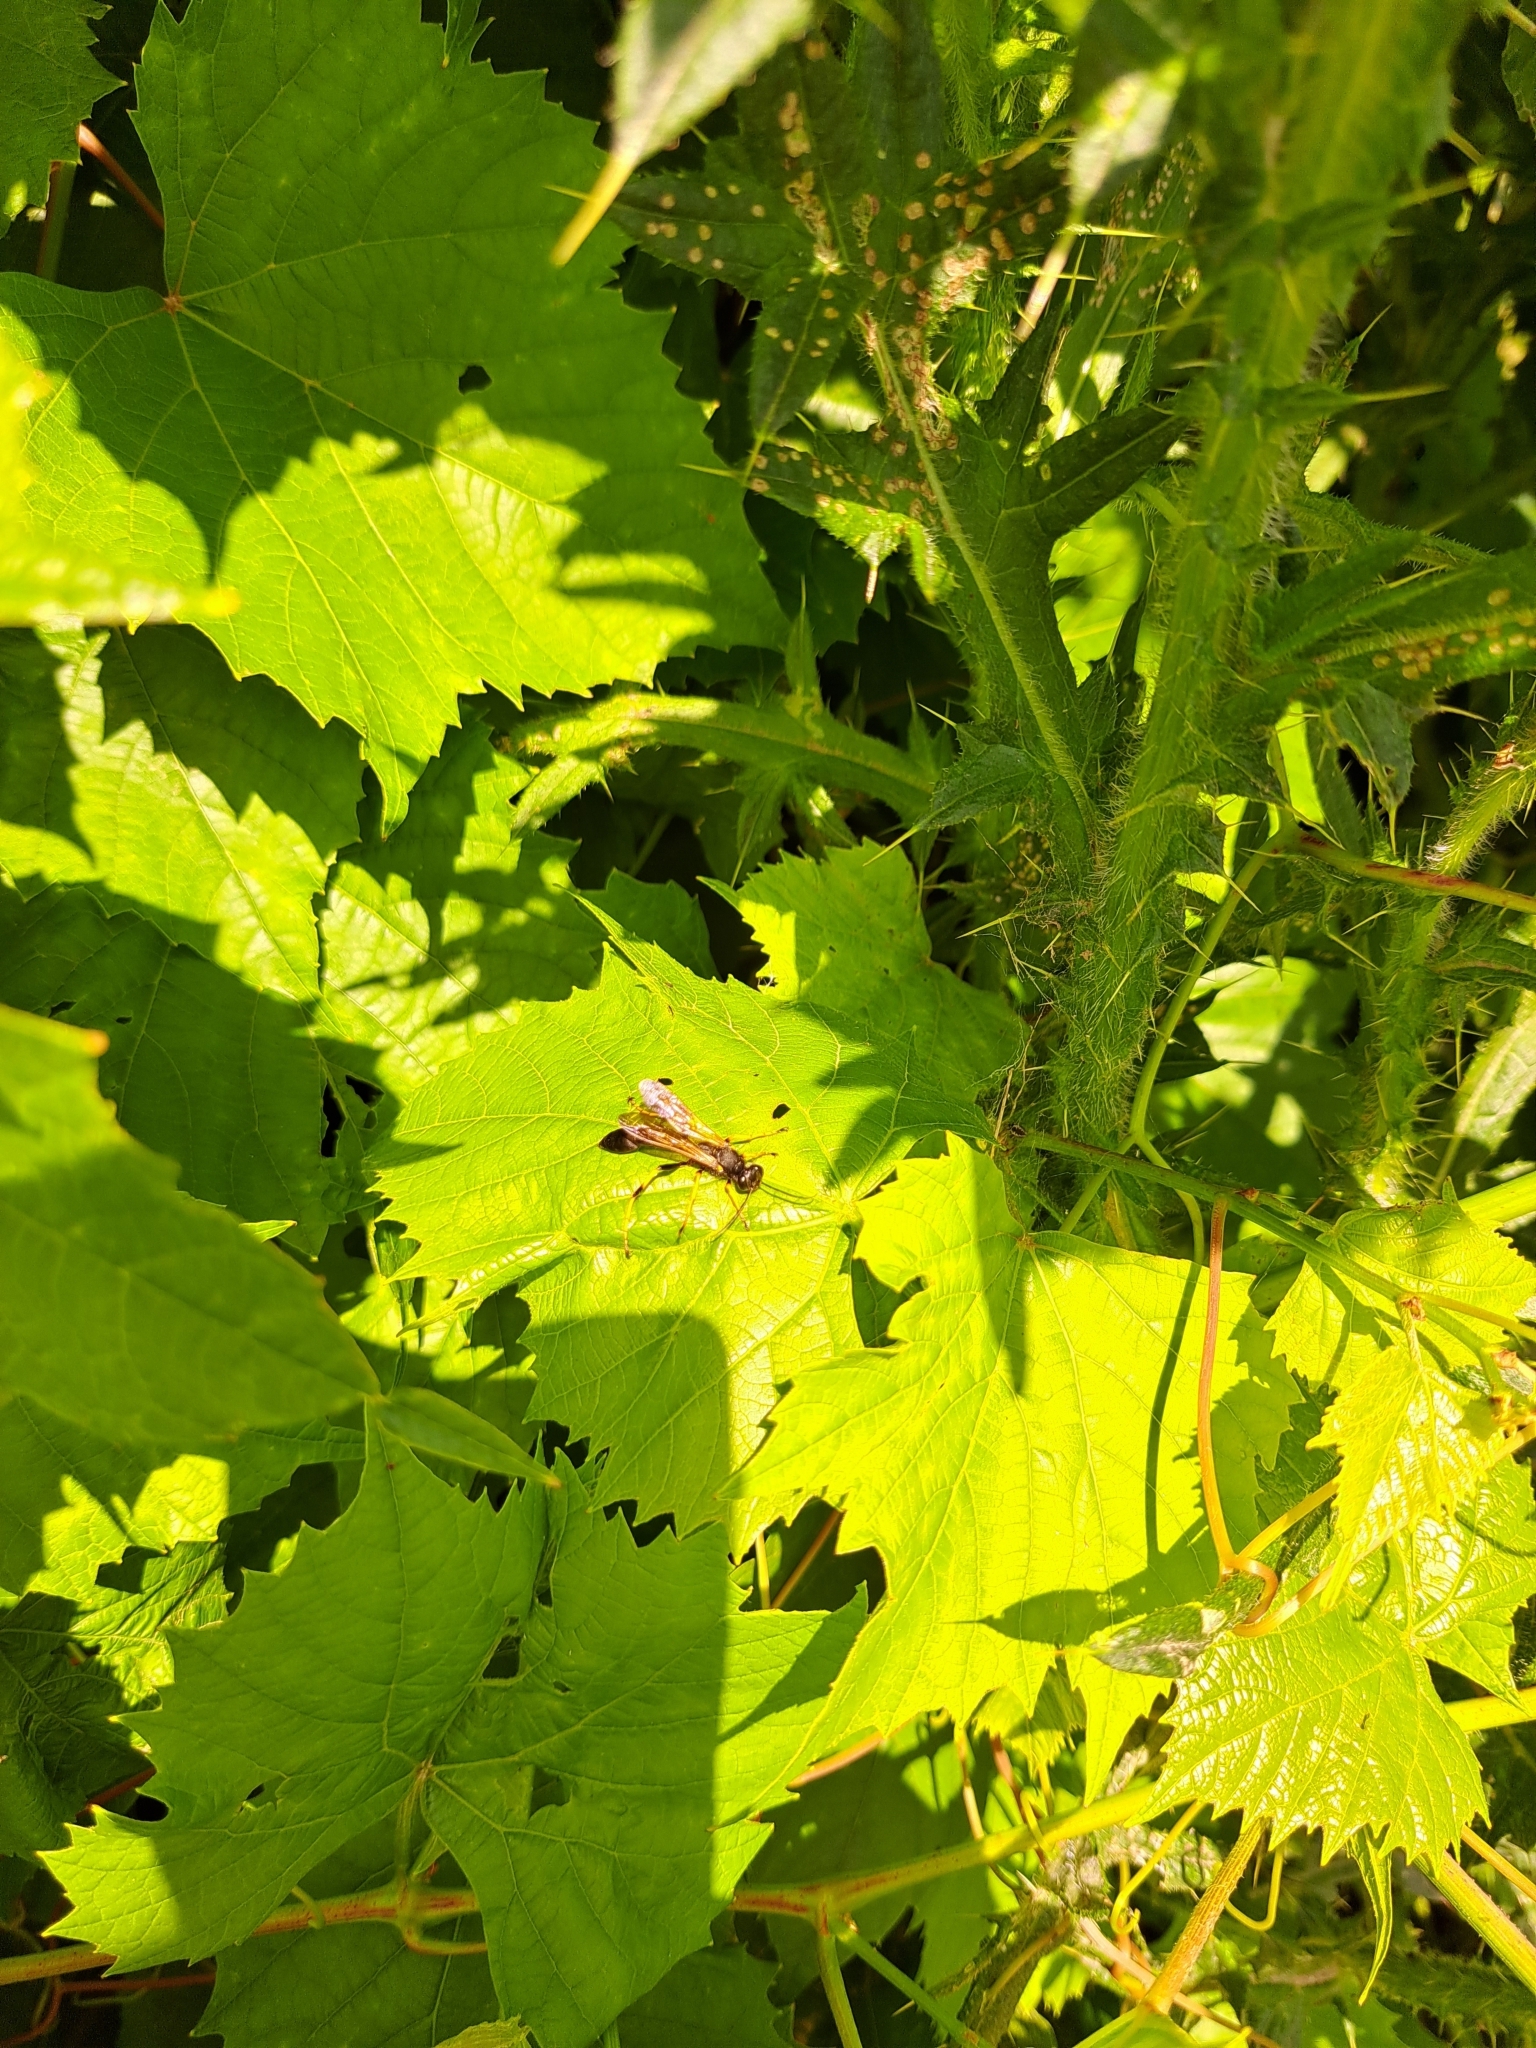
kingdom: Animalia
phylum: Arthropoda
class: Insecta
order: Hymenoptera
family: Sphecidae
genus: Sceliphron
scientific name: Sceliphron caementarium
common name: Mud dauber
